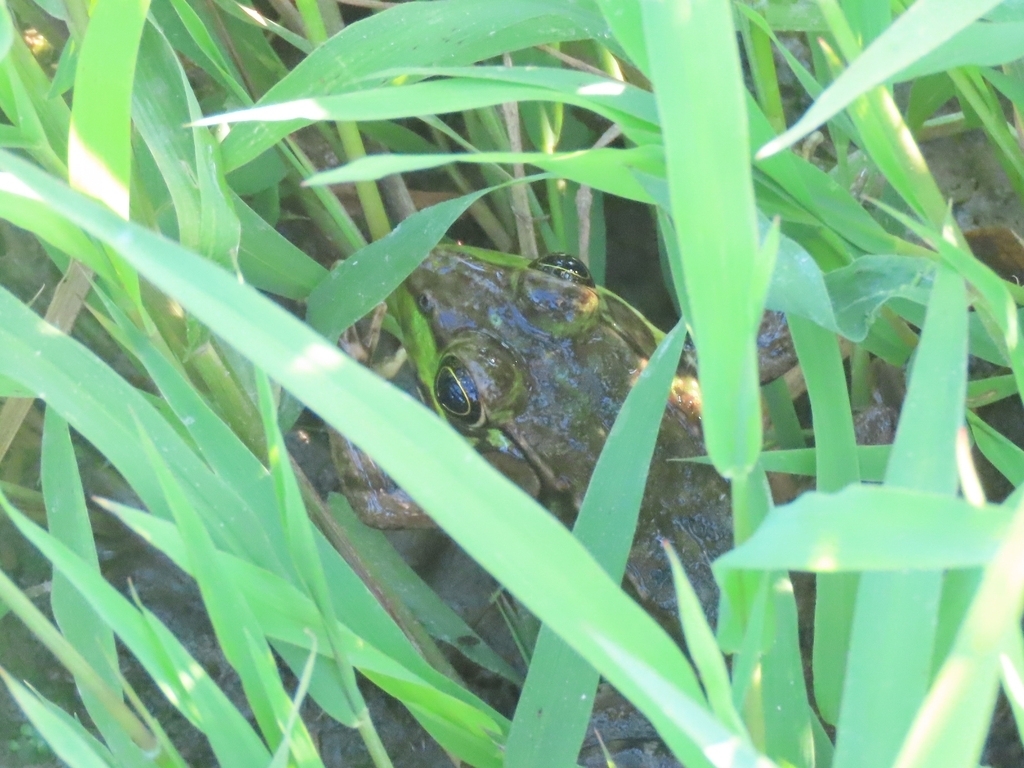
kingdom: Animalia
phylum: Chordata
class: Amphibia
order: Anura
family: Ranidae
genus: Lithobates
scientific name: Lithobates clamitans
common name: Green frog
